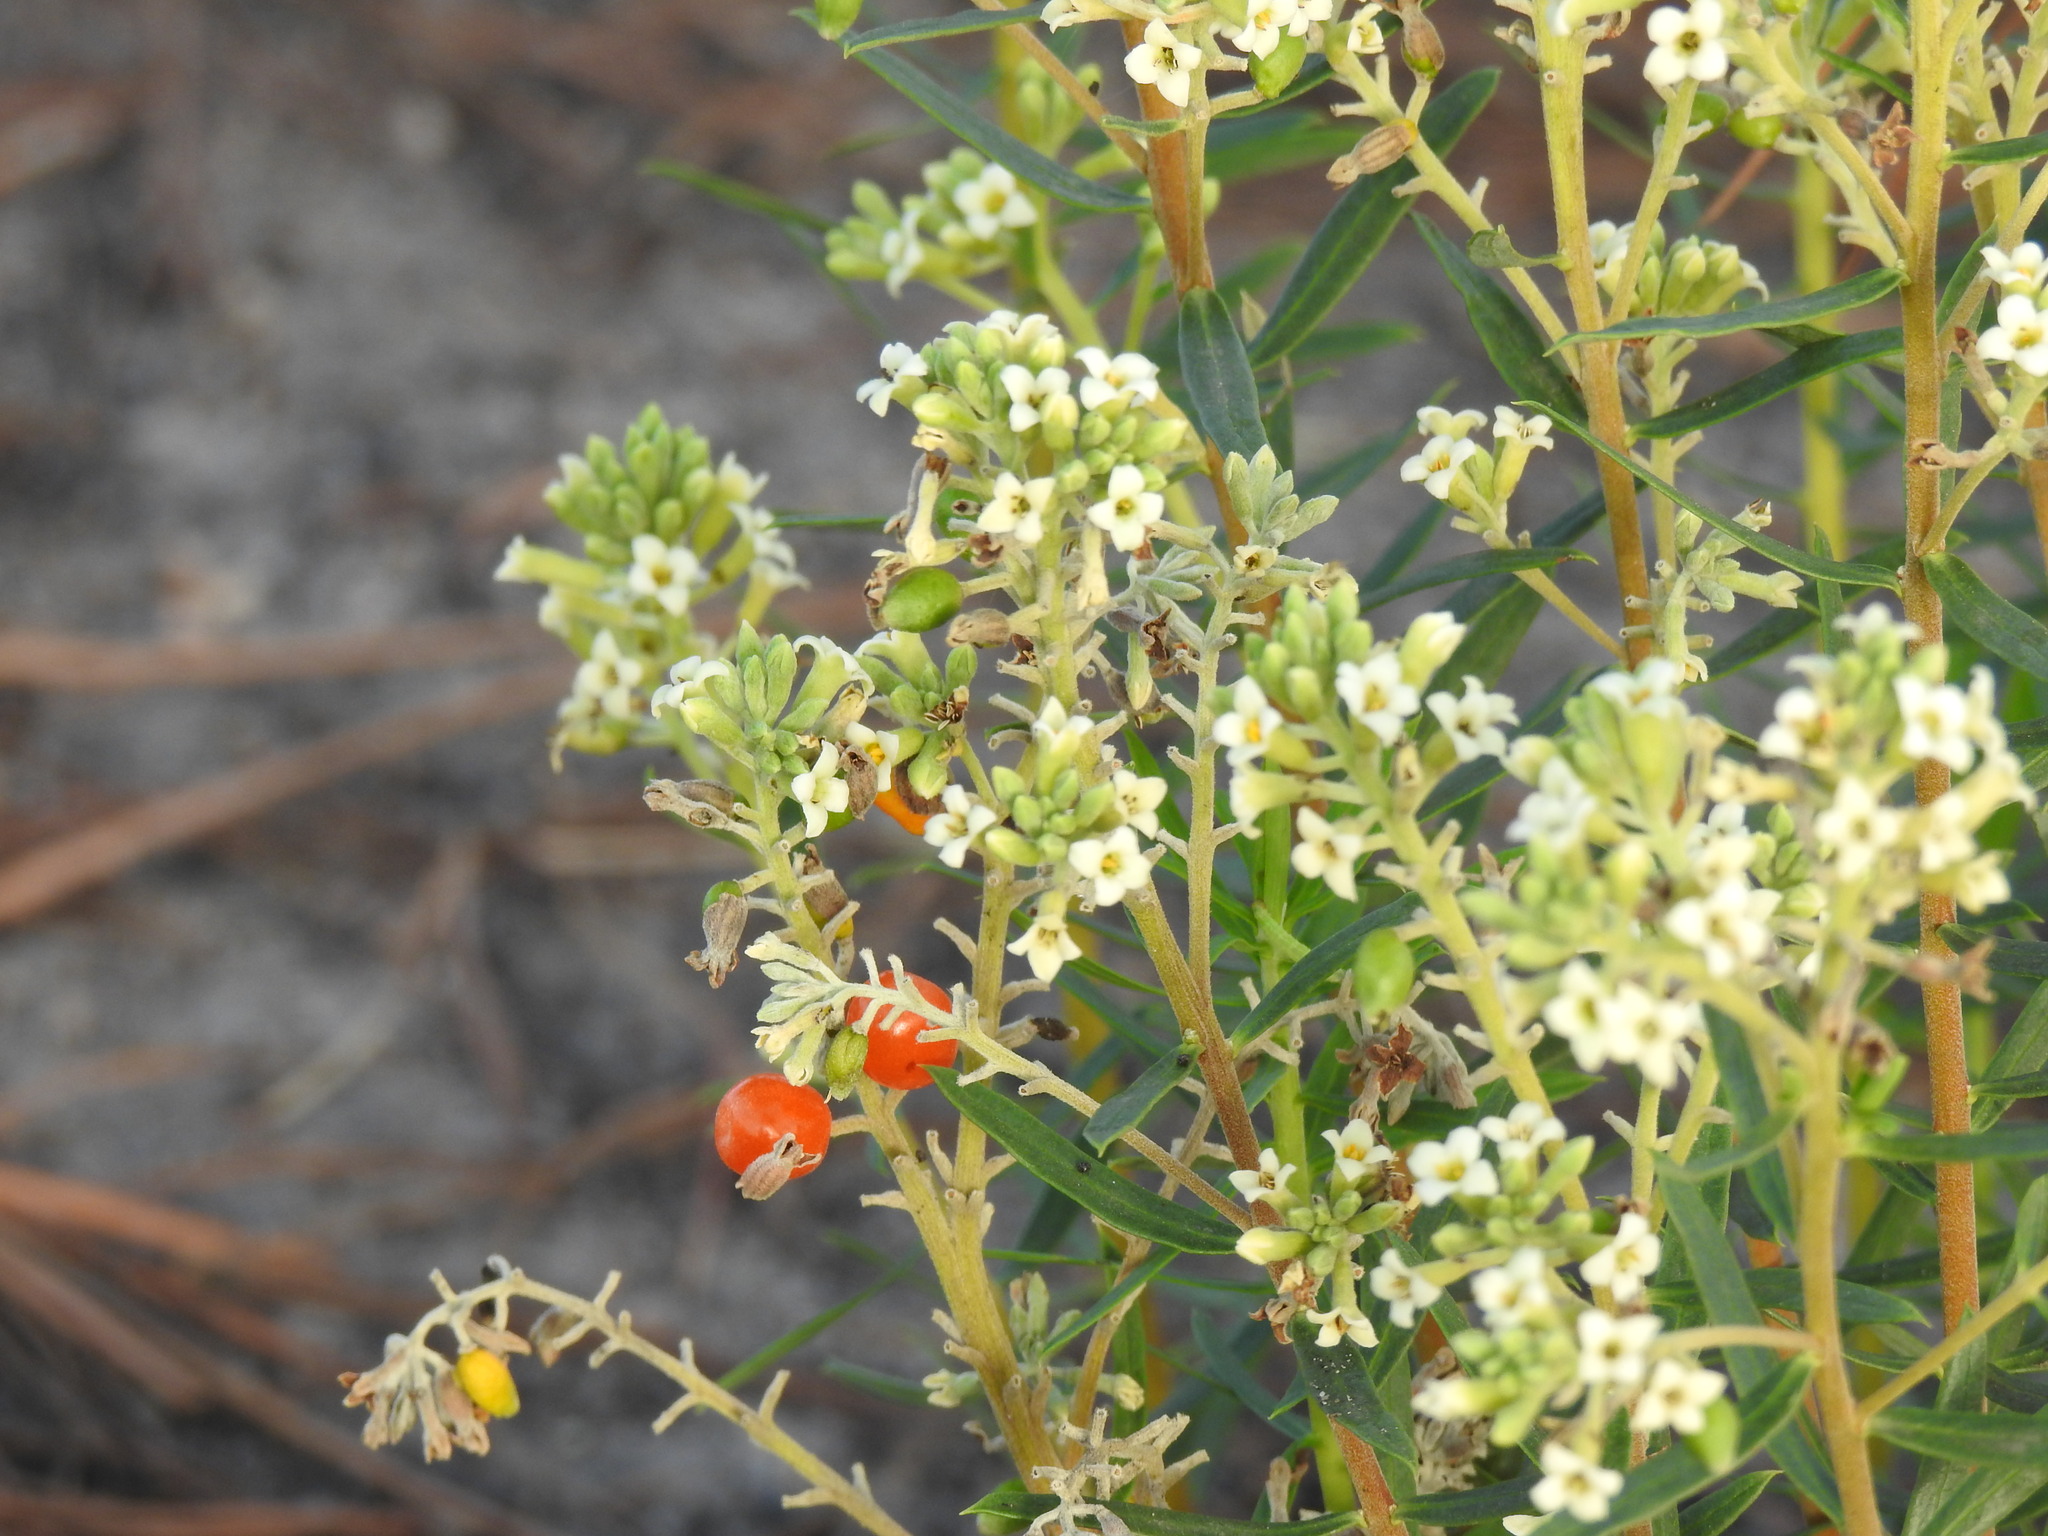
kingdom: Plantae
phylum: Tracheophyta
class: Magnoliopsida
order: Malvales
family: Thymelaeaceae
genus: Daphne
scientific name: Daphne gnidium
